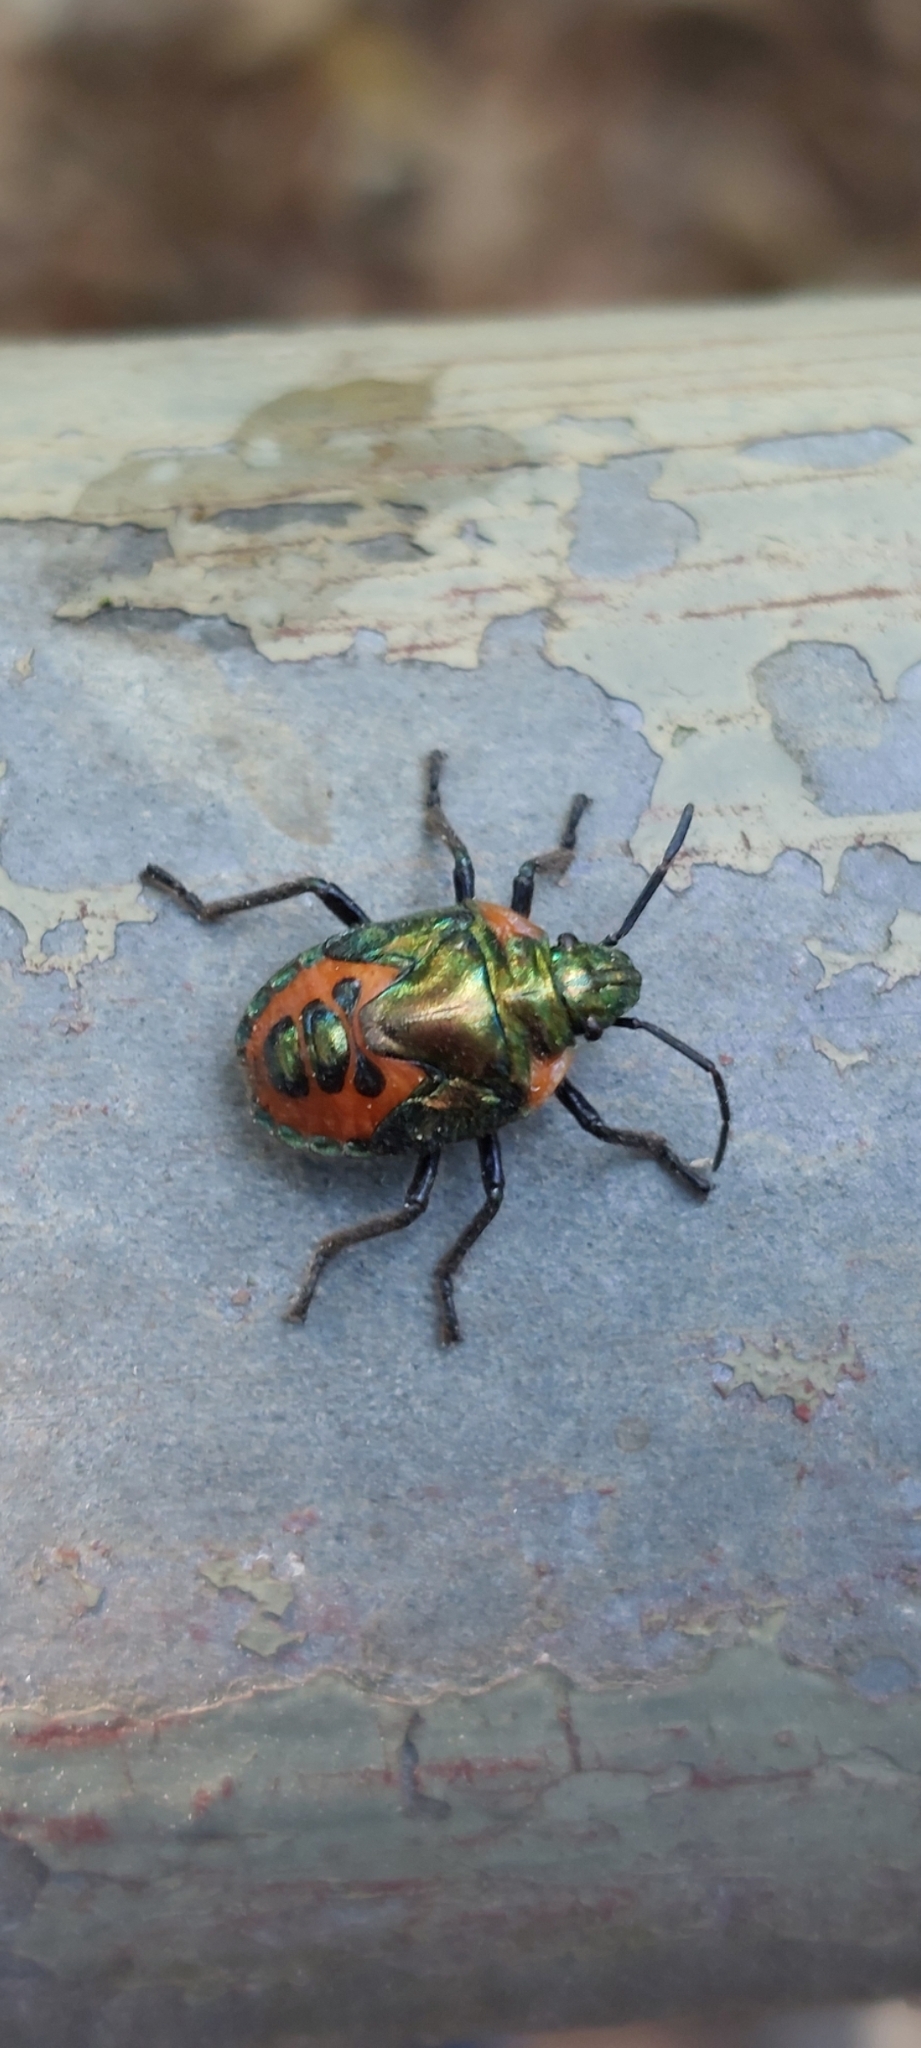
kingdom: Animalia
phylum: Arthropoda
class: Insecta
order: Hemiptera
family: Scutelleridae
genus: Cantao
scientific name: Cantao ocellatus
